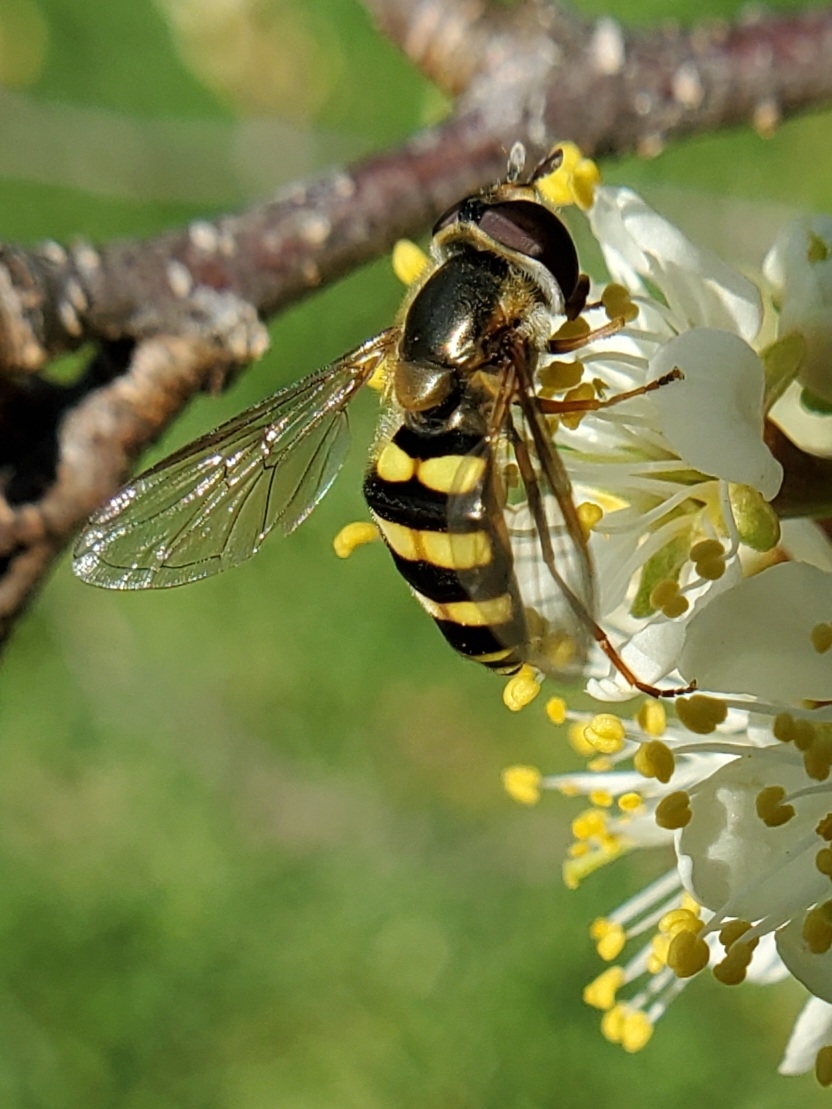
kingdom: Animalia
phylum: Arthropoda
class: Insecta
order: Diptera
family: Syrphidae
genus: Eupeodes
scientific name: Eupeodes
